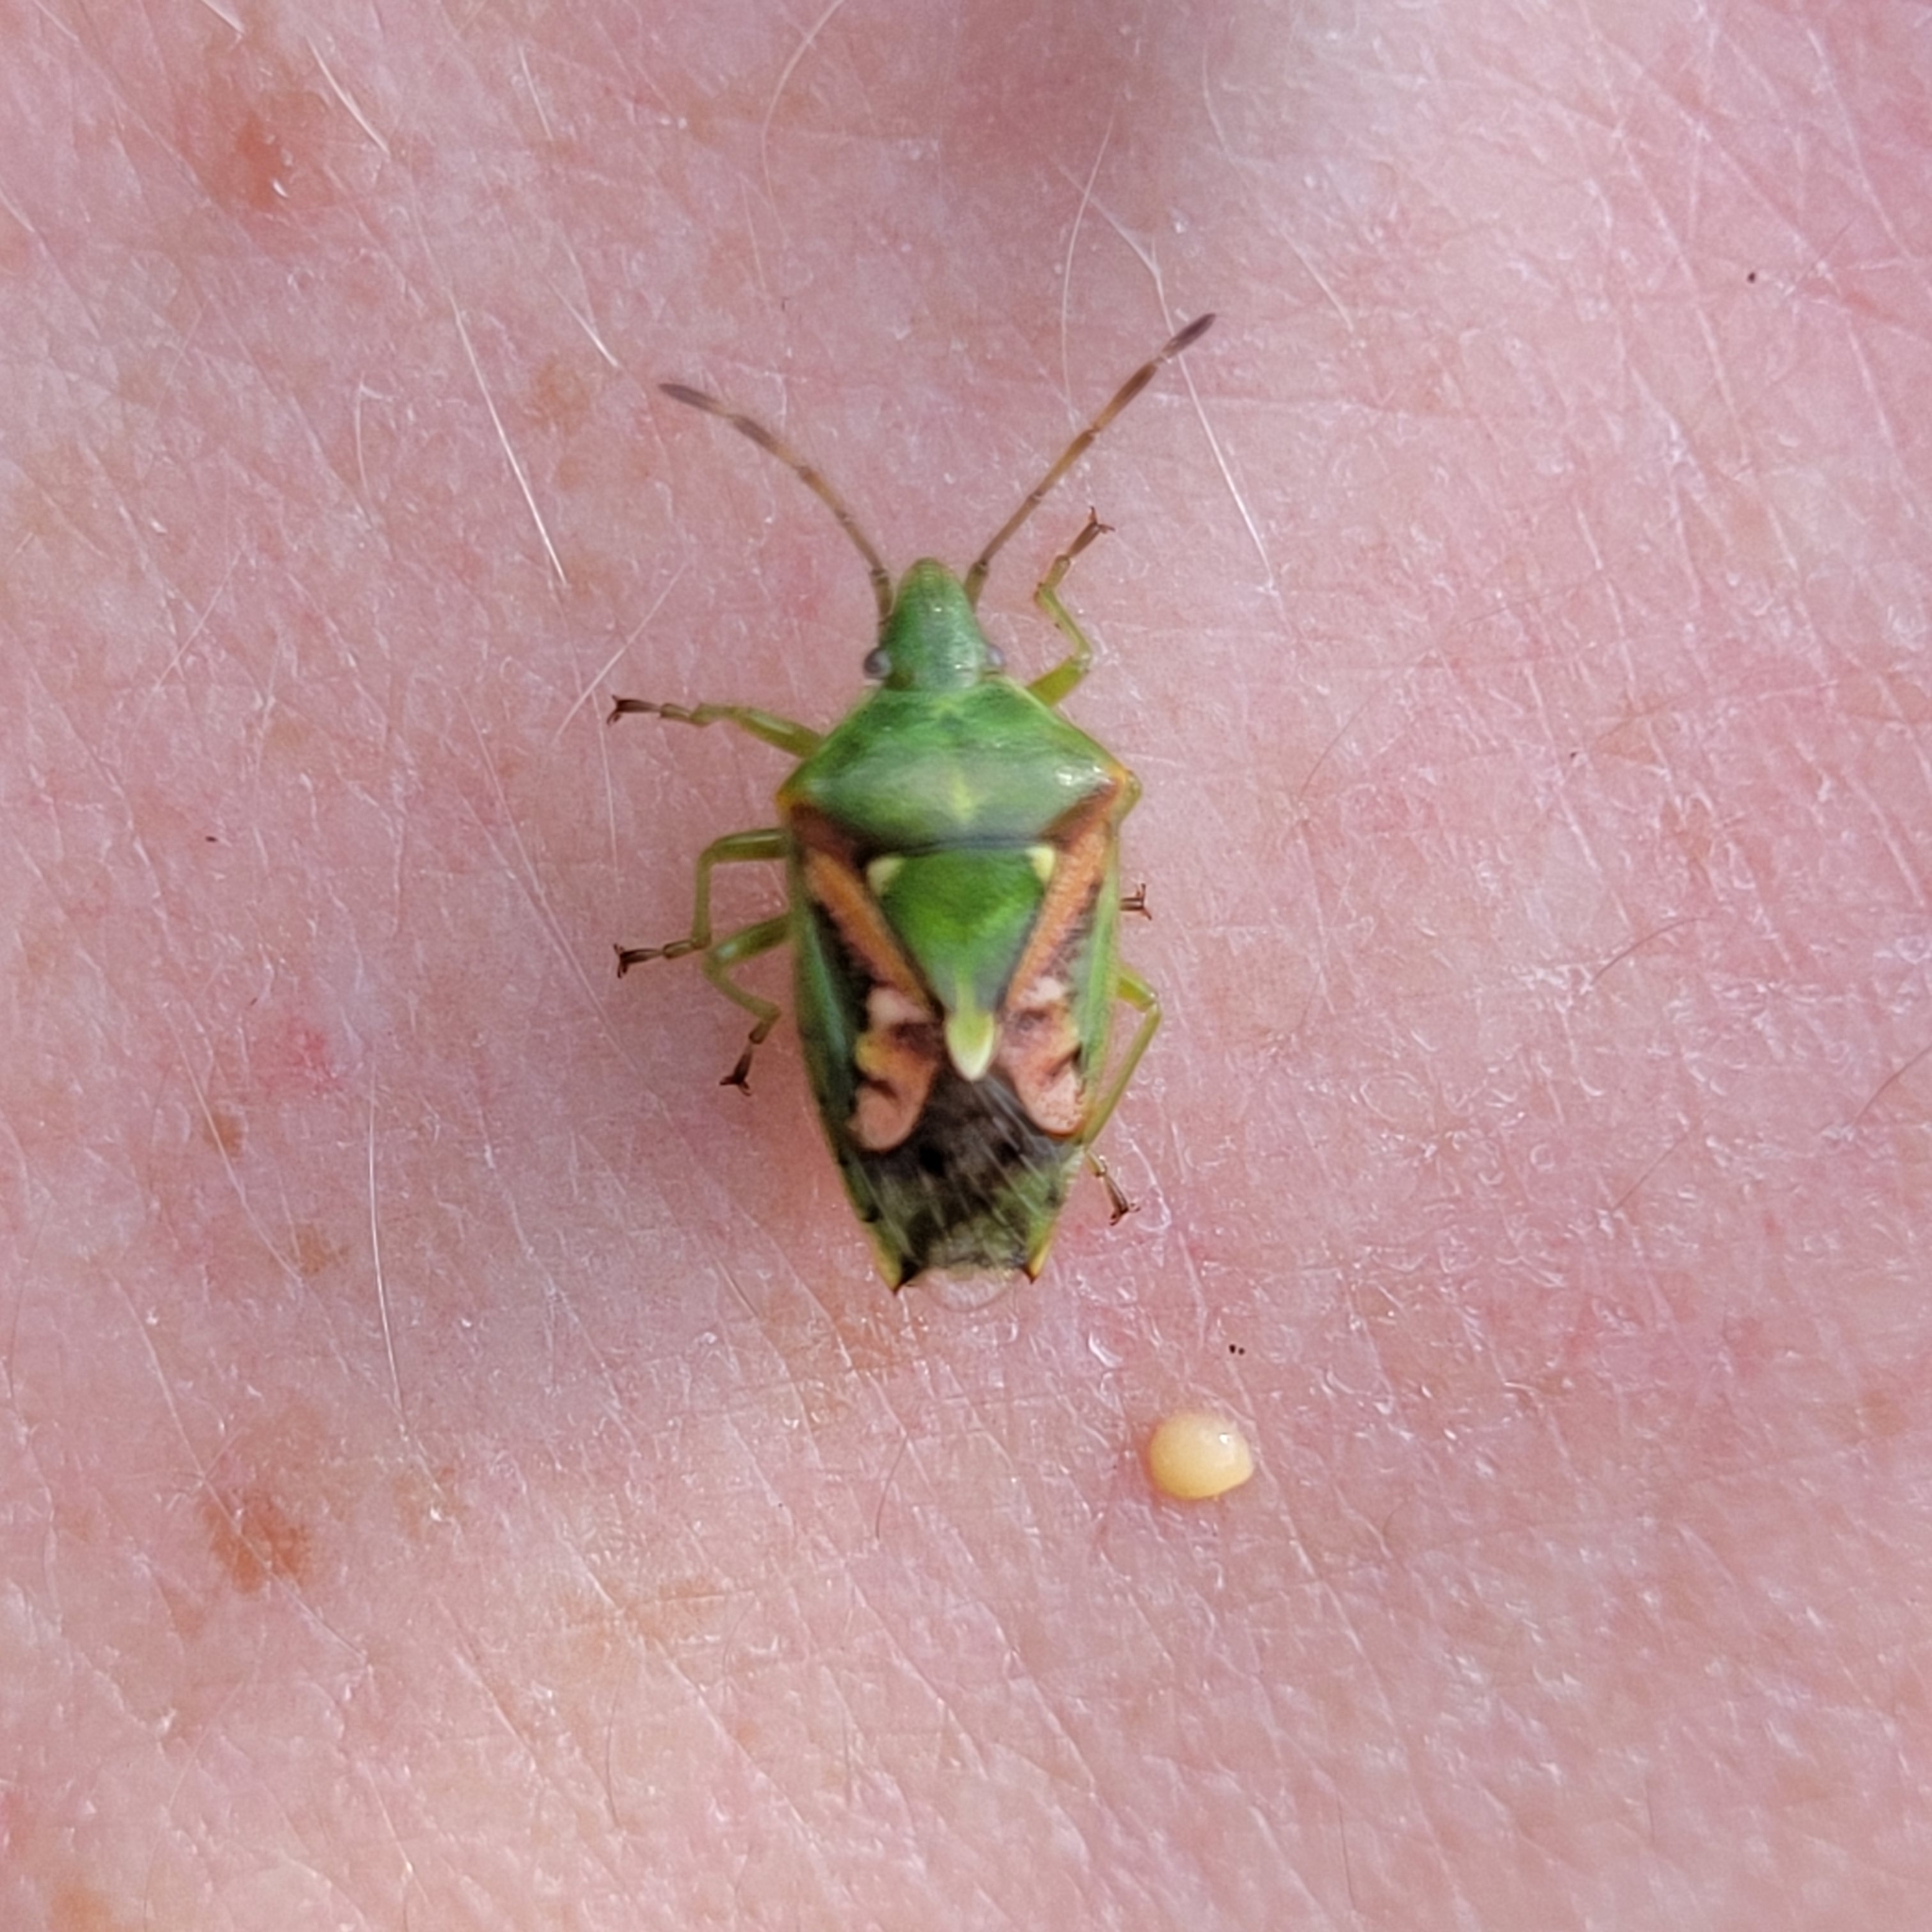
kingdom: Animalia
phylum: Arthropoda
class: Insecta
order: Hemiptera
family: Acanthosomatidae
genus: Cyphostethus
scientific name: Cyphostethus tristriatus
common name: Juniper shieldbug
